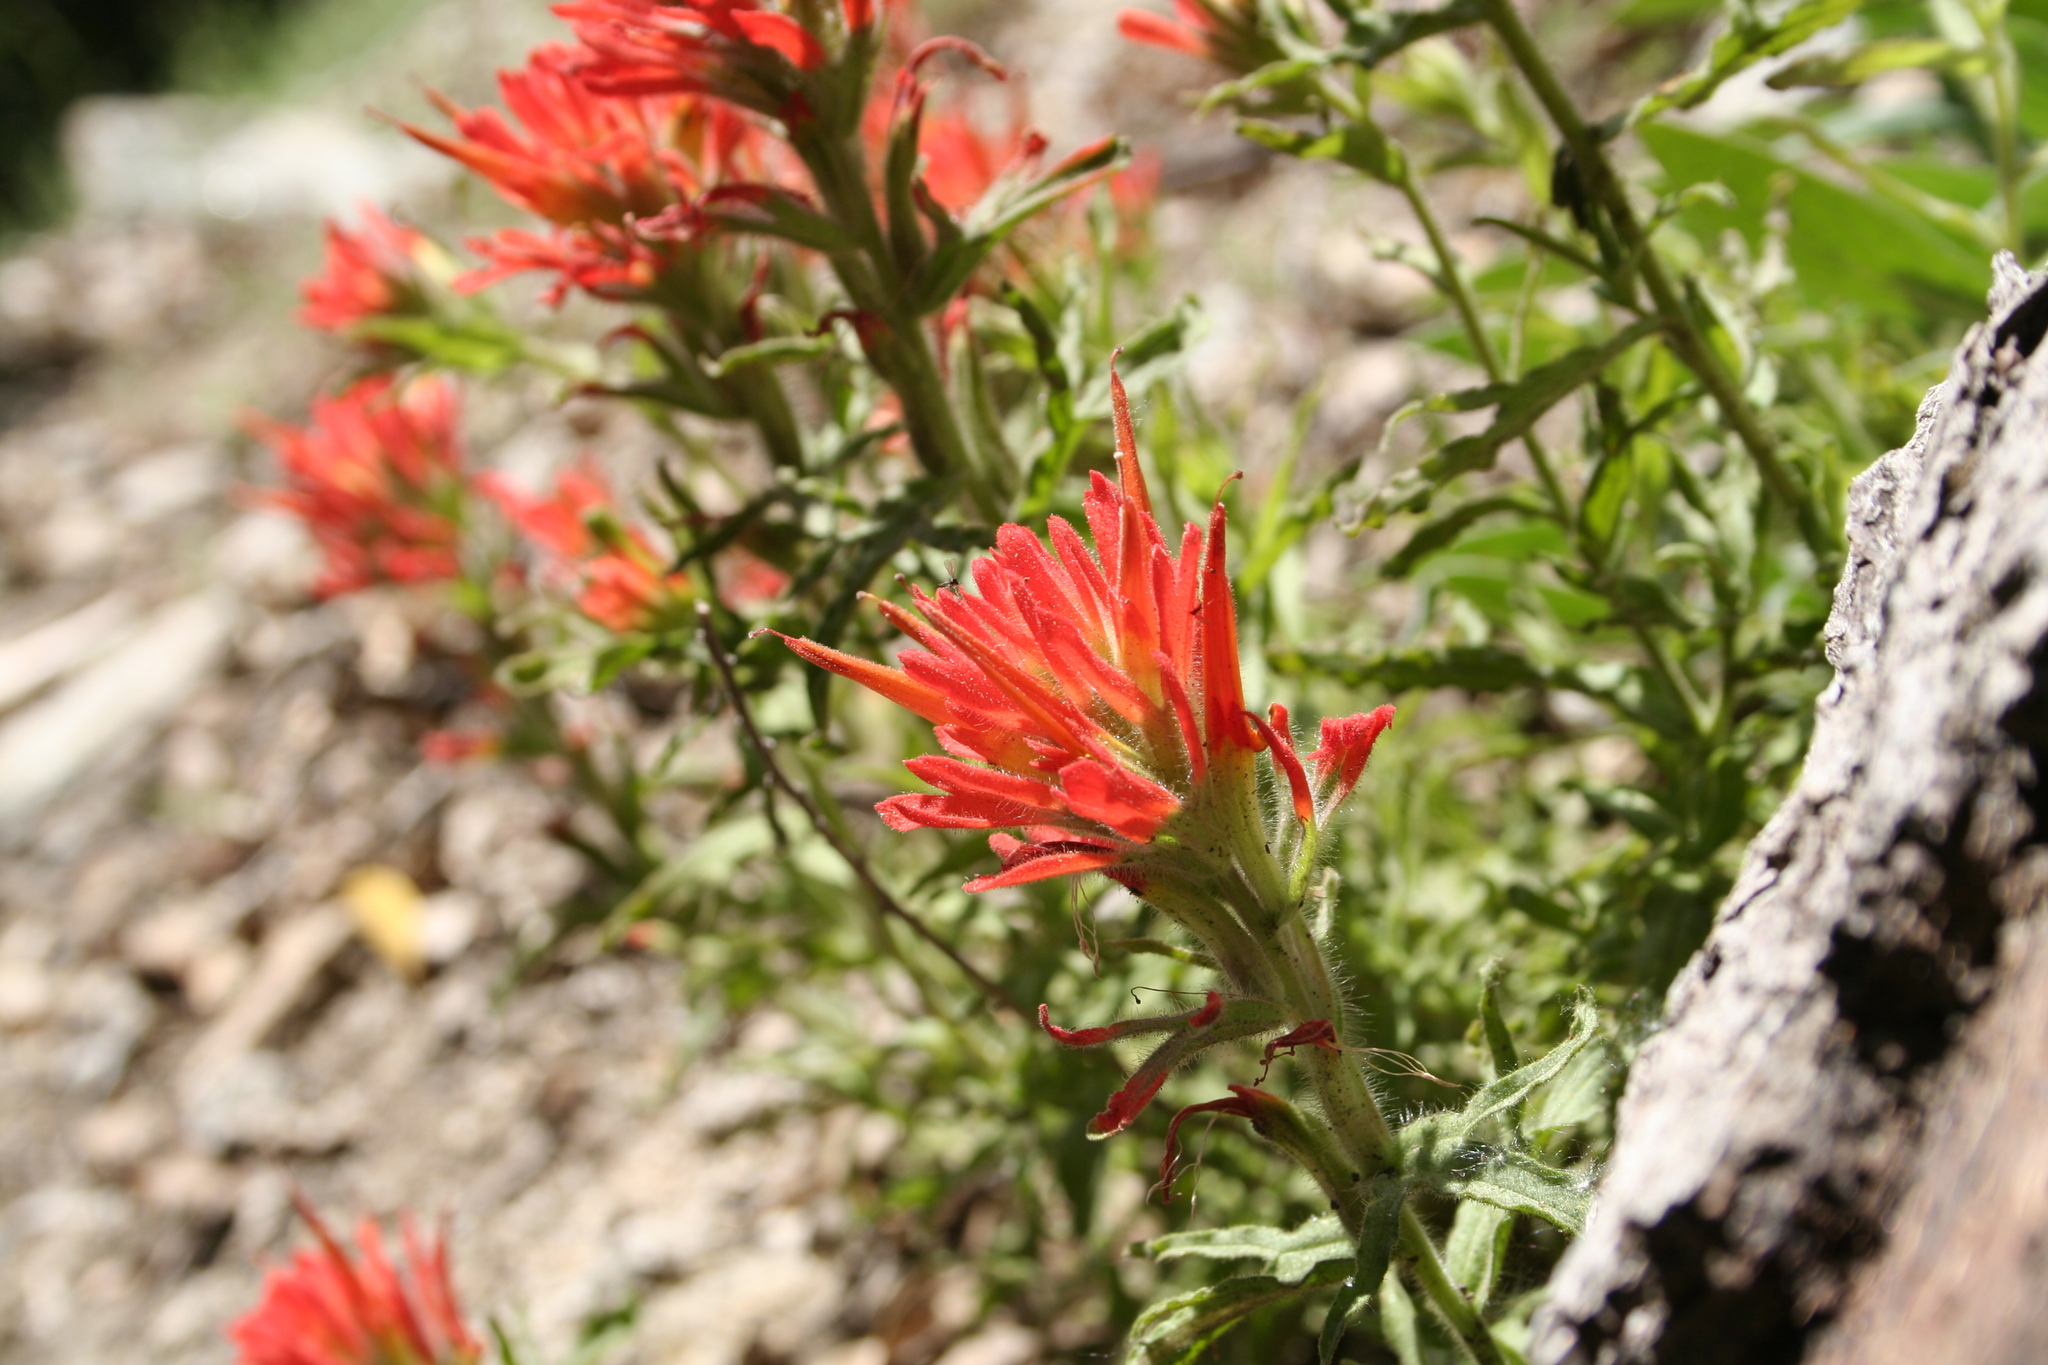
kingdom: Plantae
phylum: Tracheophyta
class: Magnoliopsida
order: Lamiales
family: Orobanchaceae
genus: Castilleja
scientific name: Castilleja applegatei
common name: Wavy-leaf paintbrush
